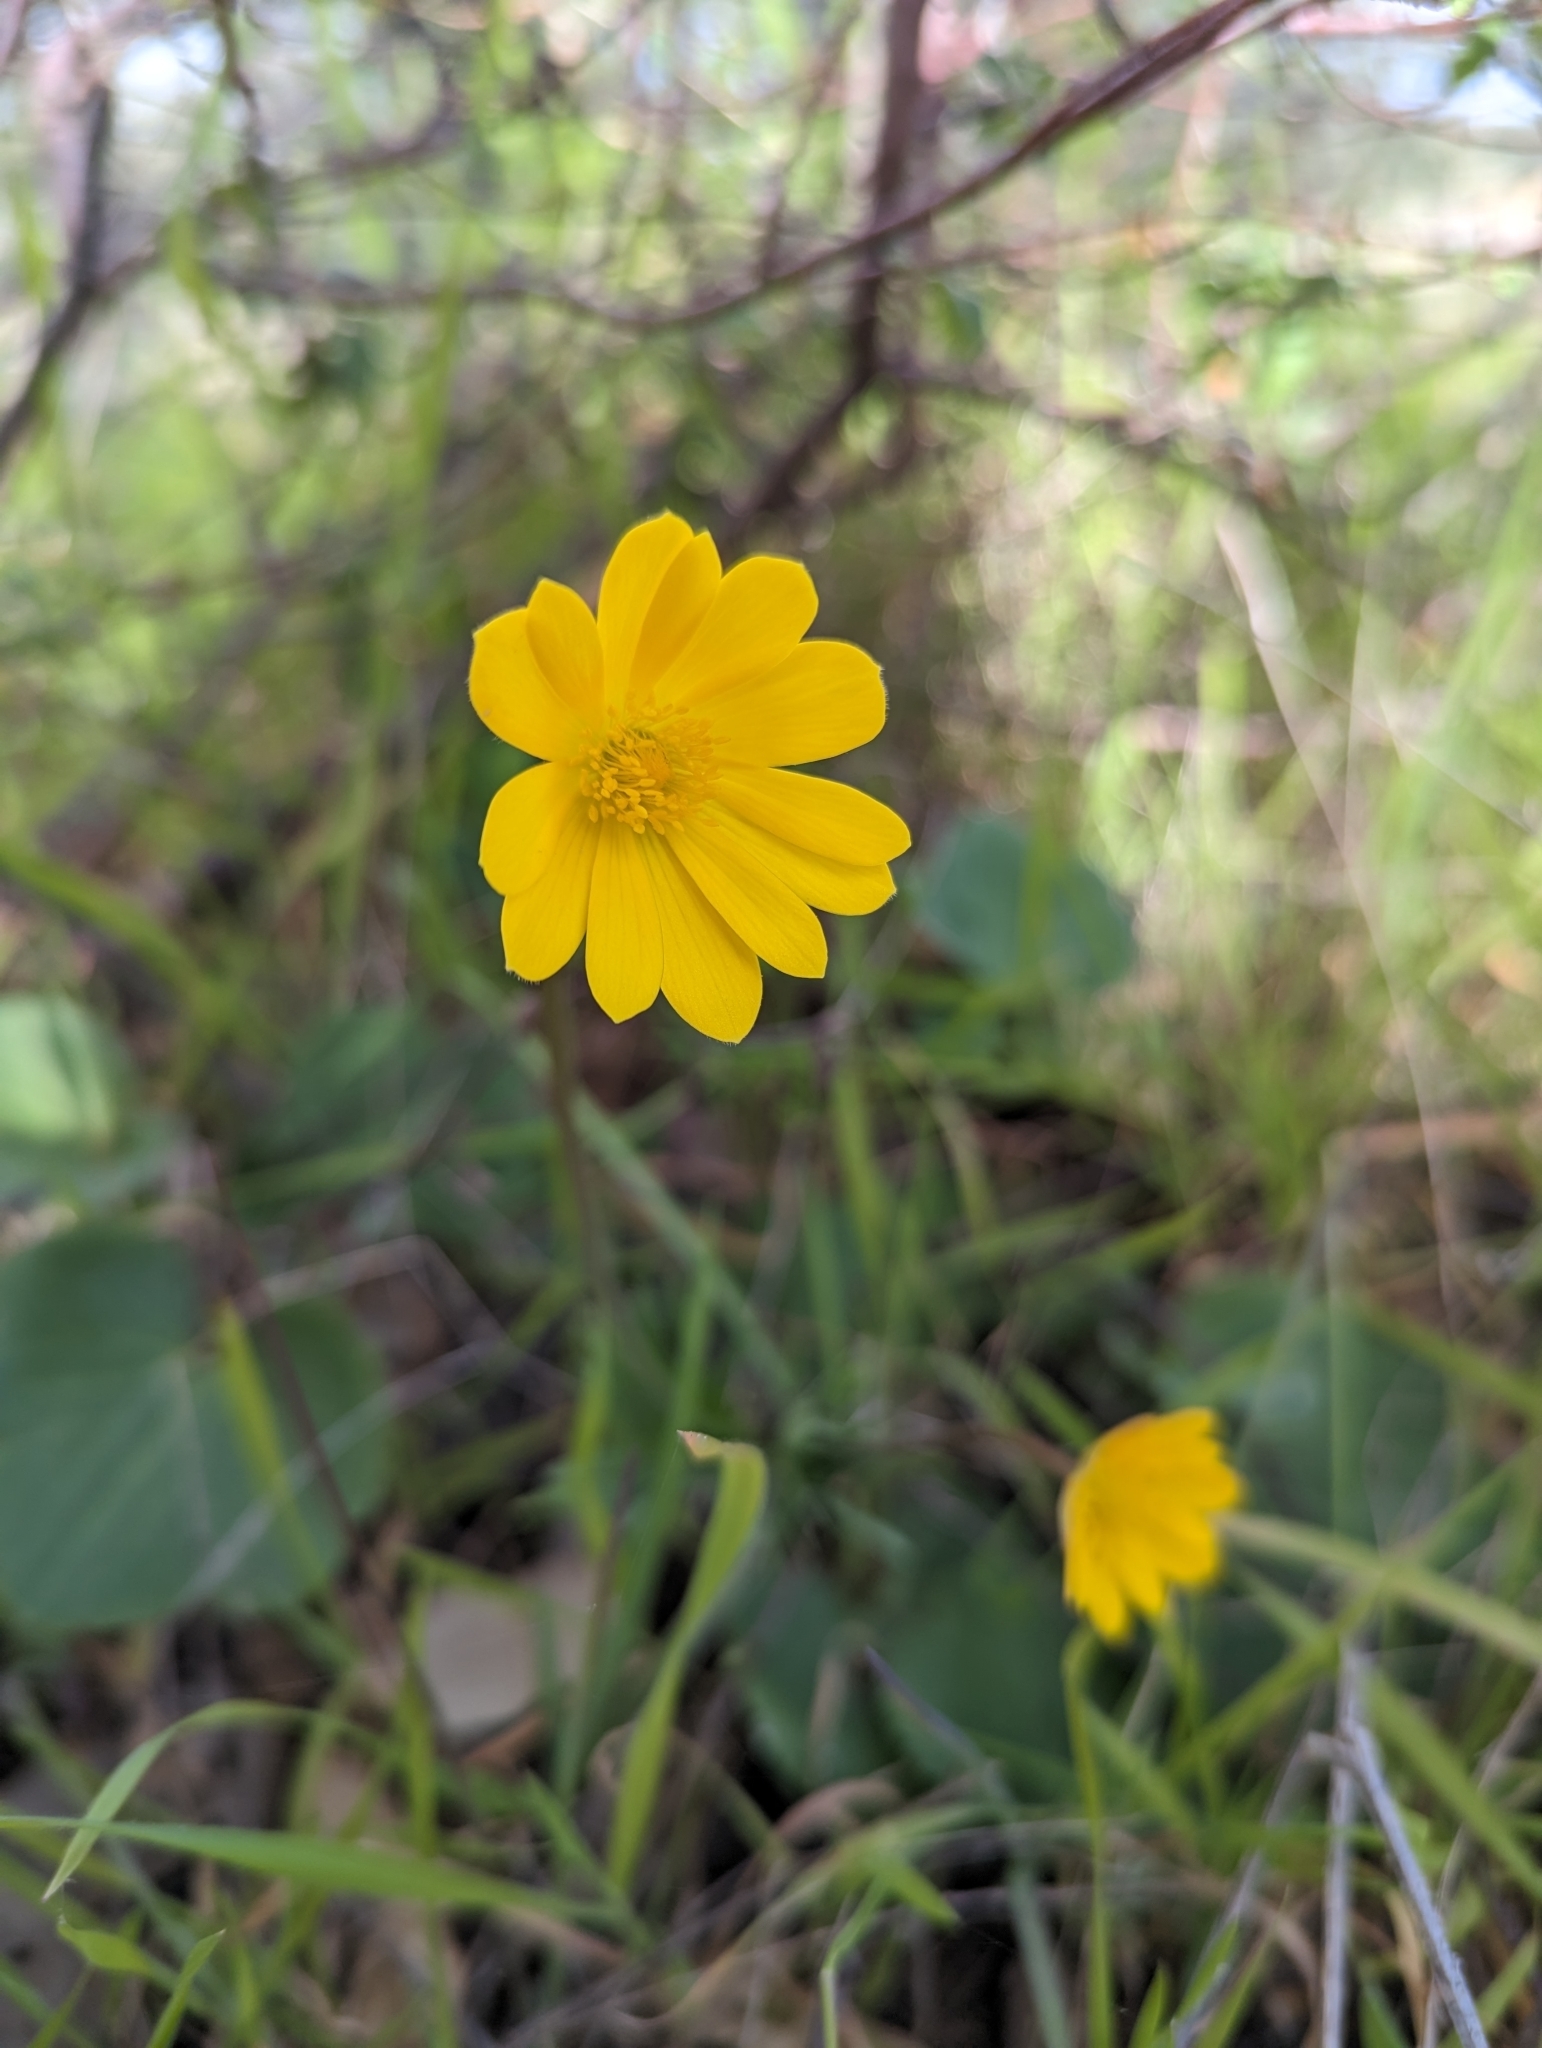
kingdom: Plantae
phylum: Tracheophyta
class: Magnoliopsida
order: Ranunculales
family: Ranunculaceae
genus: Anemone
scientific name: Anemone palmata
